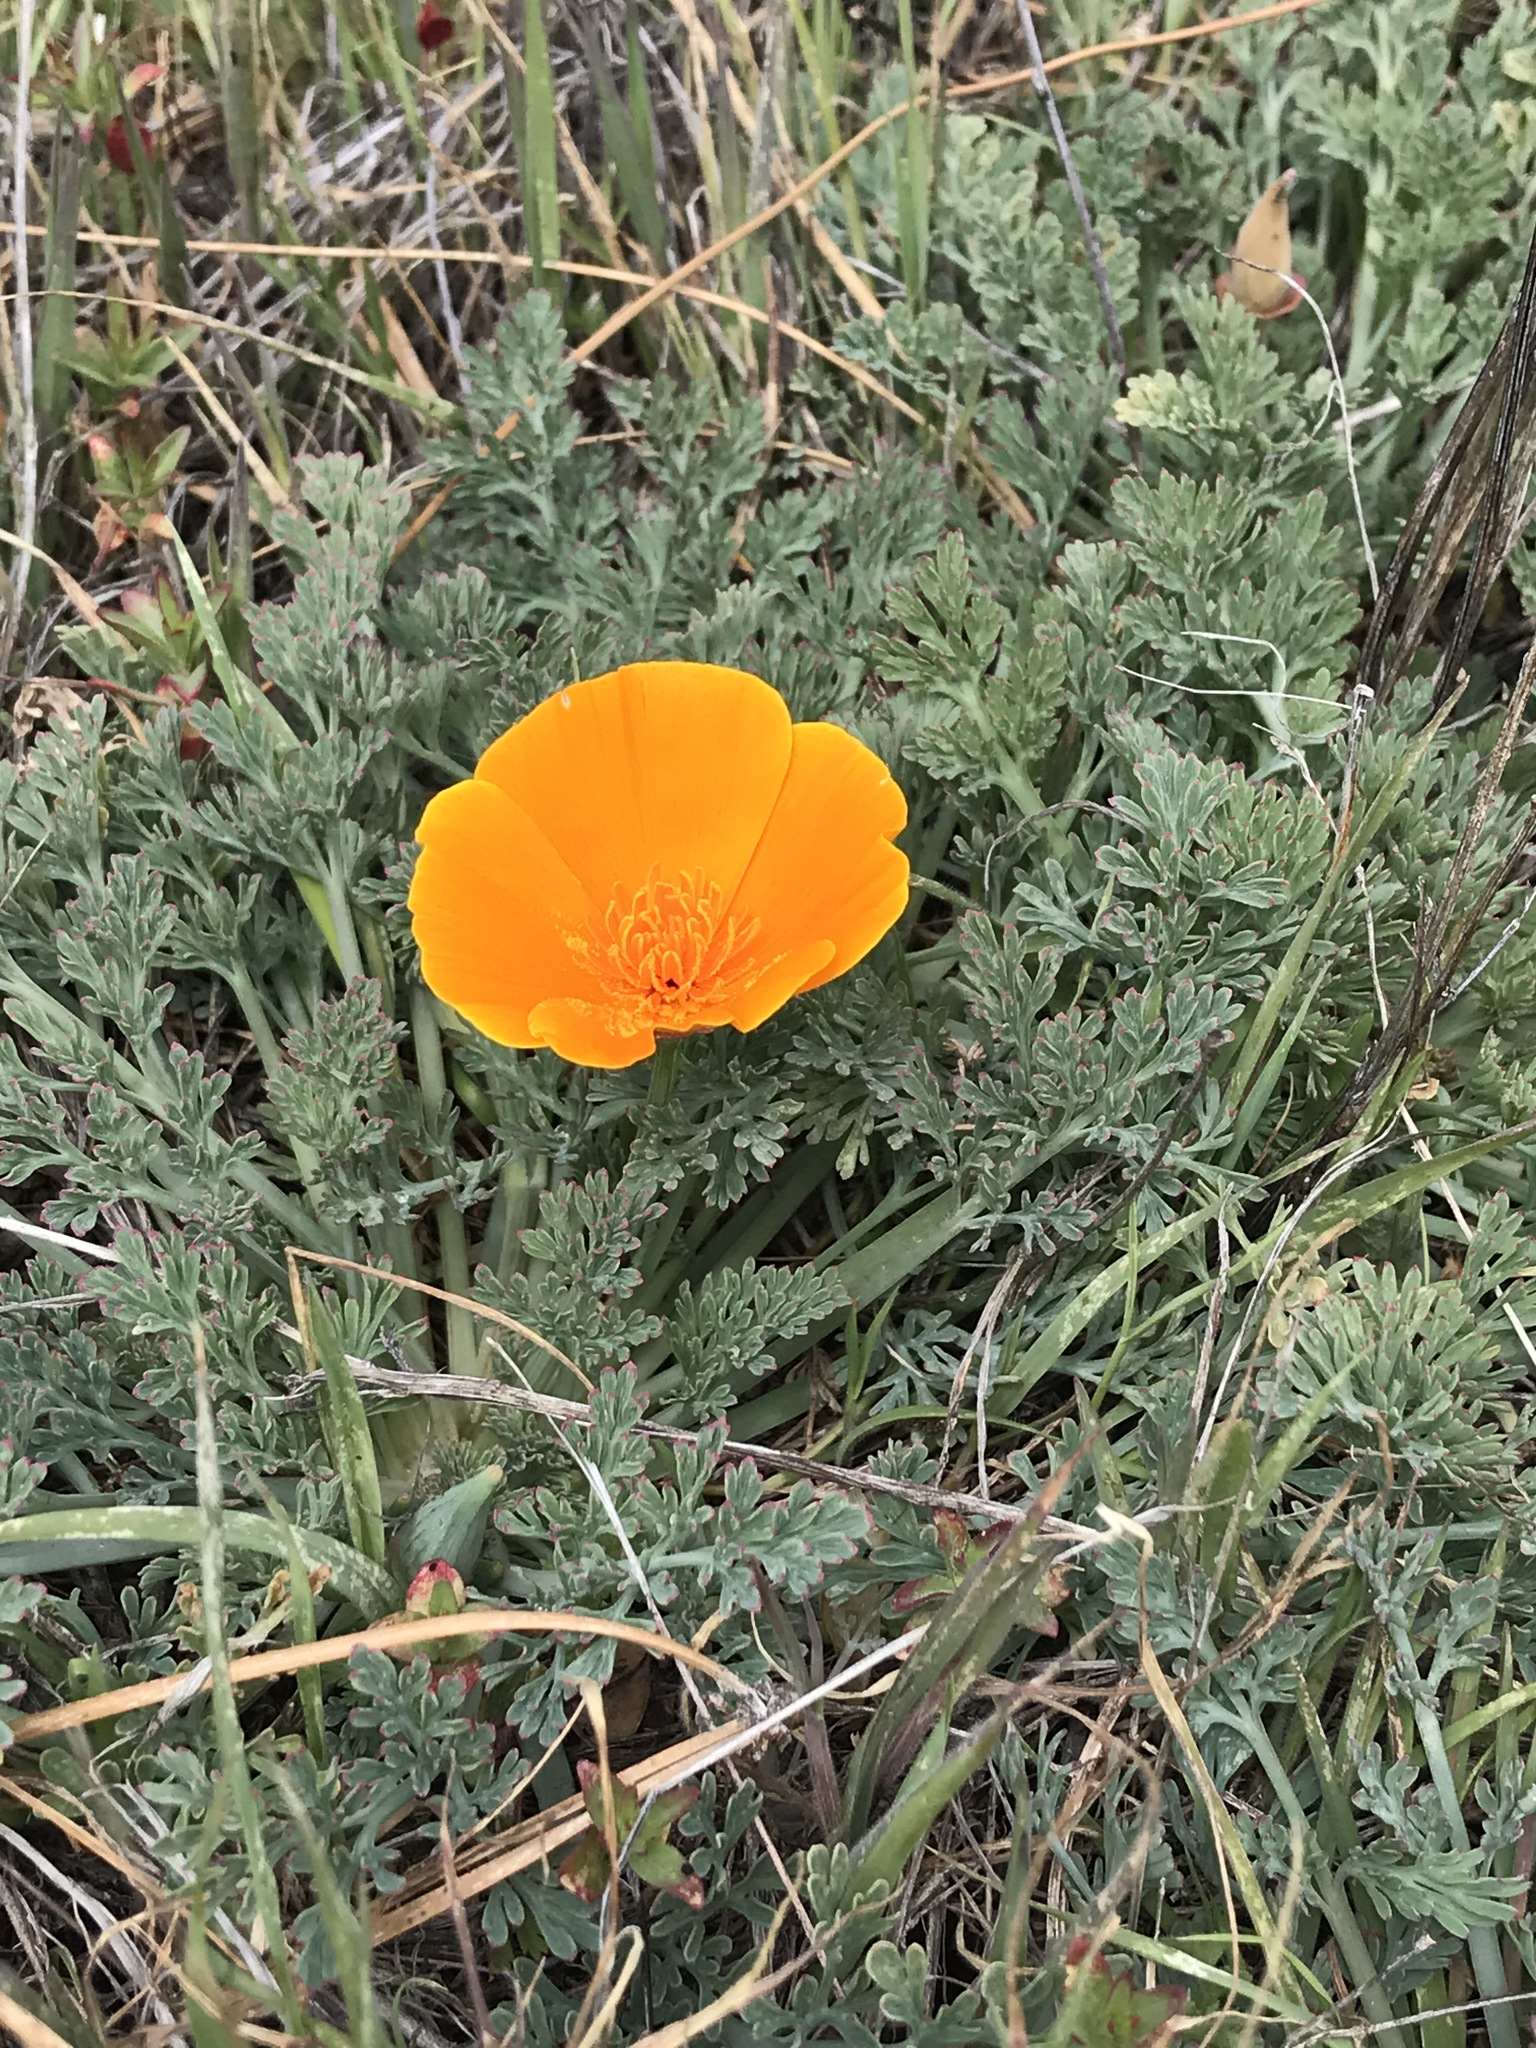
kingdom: Plantae
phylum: Tracheophyta
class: Magnoliopsida
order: Ranunculales
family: Papaveraceae
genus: Eschscholzia
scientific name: Eschscholzia californica
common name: California poppy
